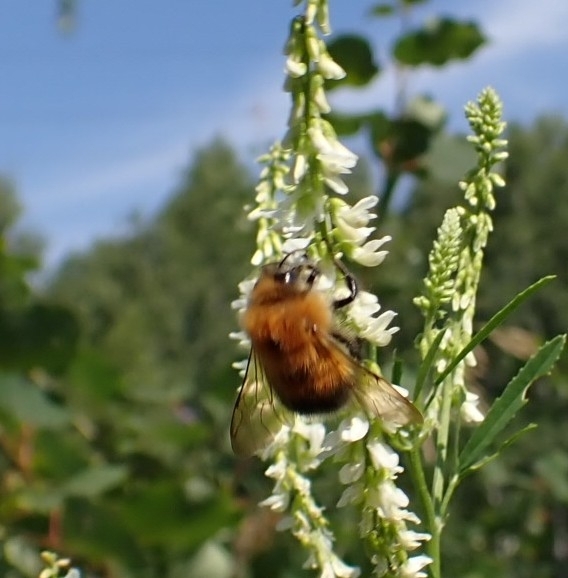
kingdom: Animalia
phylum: Arthropoda
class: Insecta
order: Hymenoptera
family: Apidae
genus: Bombus
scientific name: Bombus hypnorum
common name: New garden bumblebee
